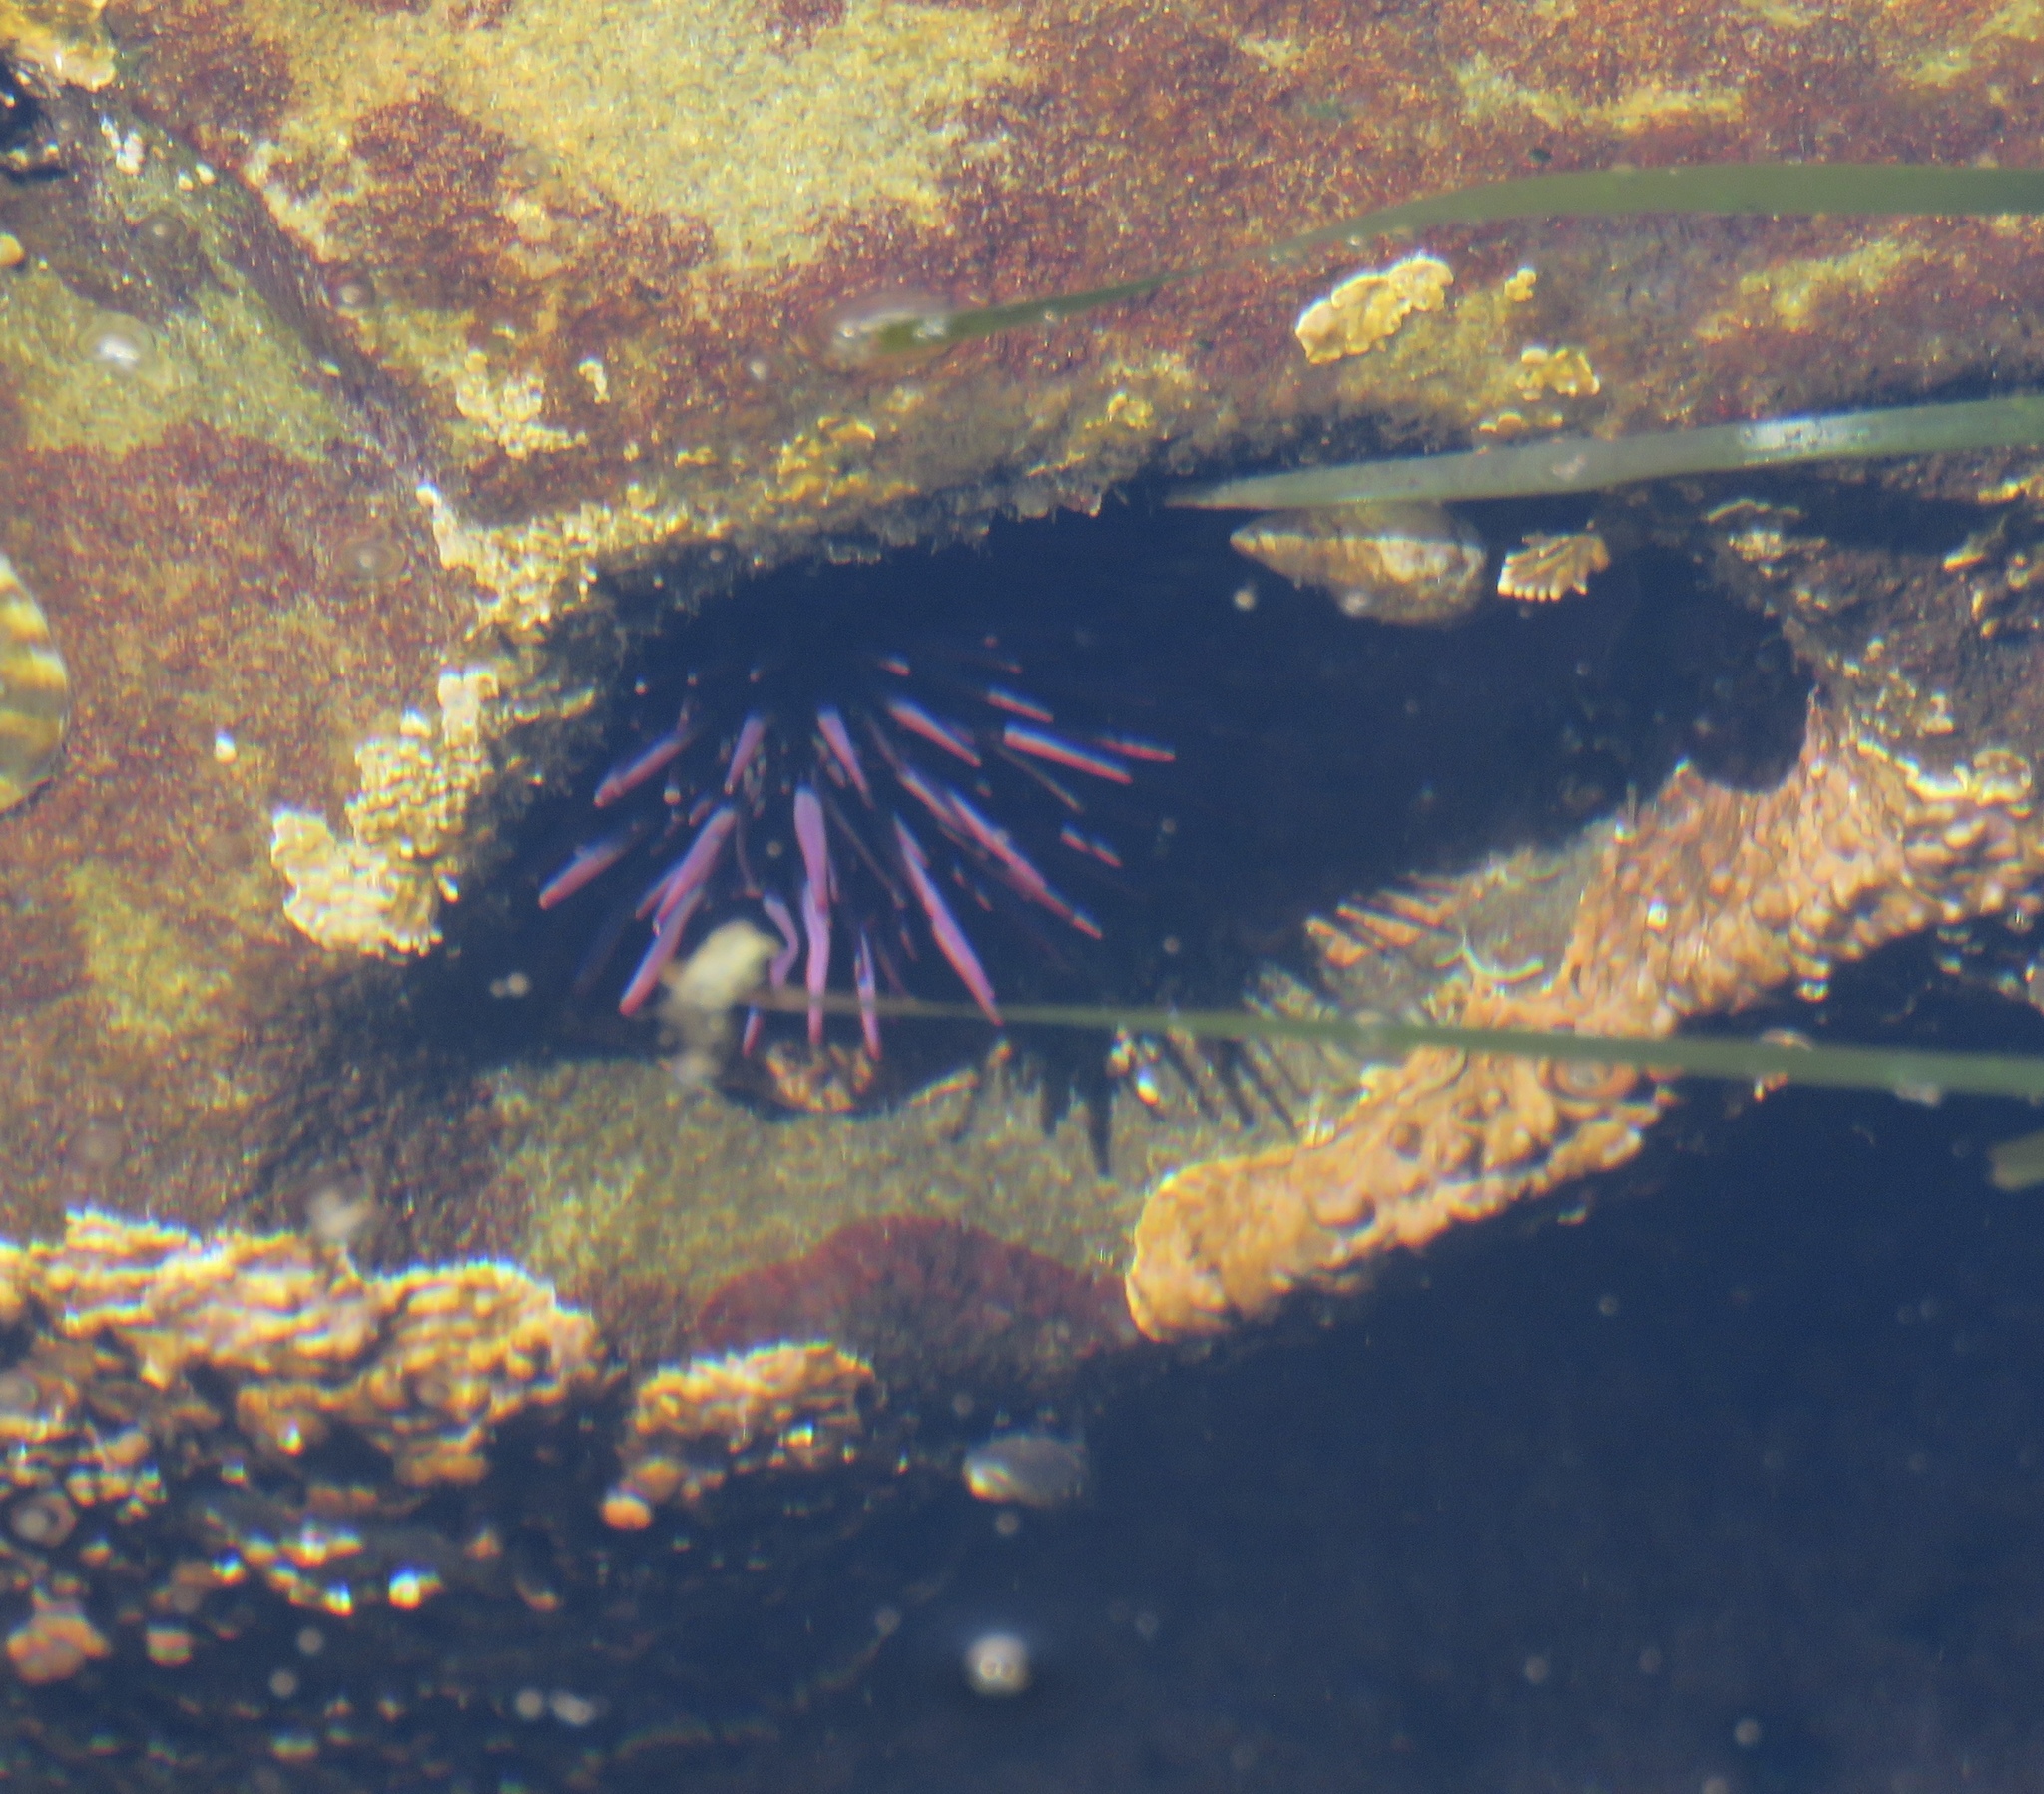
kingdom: Animalia
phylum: Echinodermata
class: Echinoidea
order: Camarodonta
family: Strongylocentrotidae
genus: Strongylocentrotus
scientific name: Strongylocentrotus purpuratus
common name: Purple sea urchin
